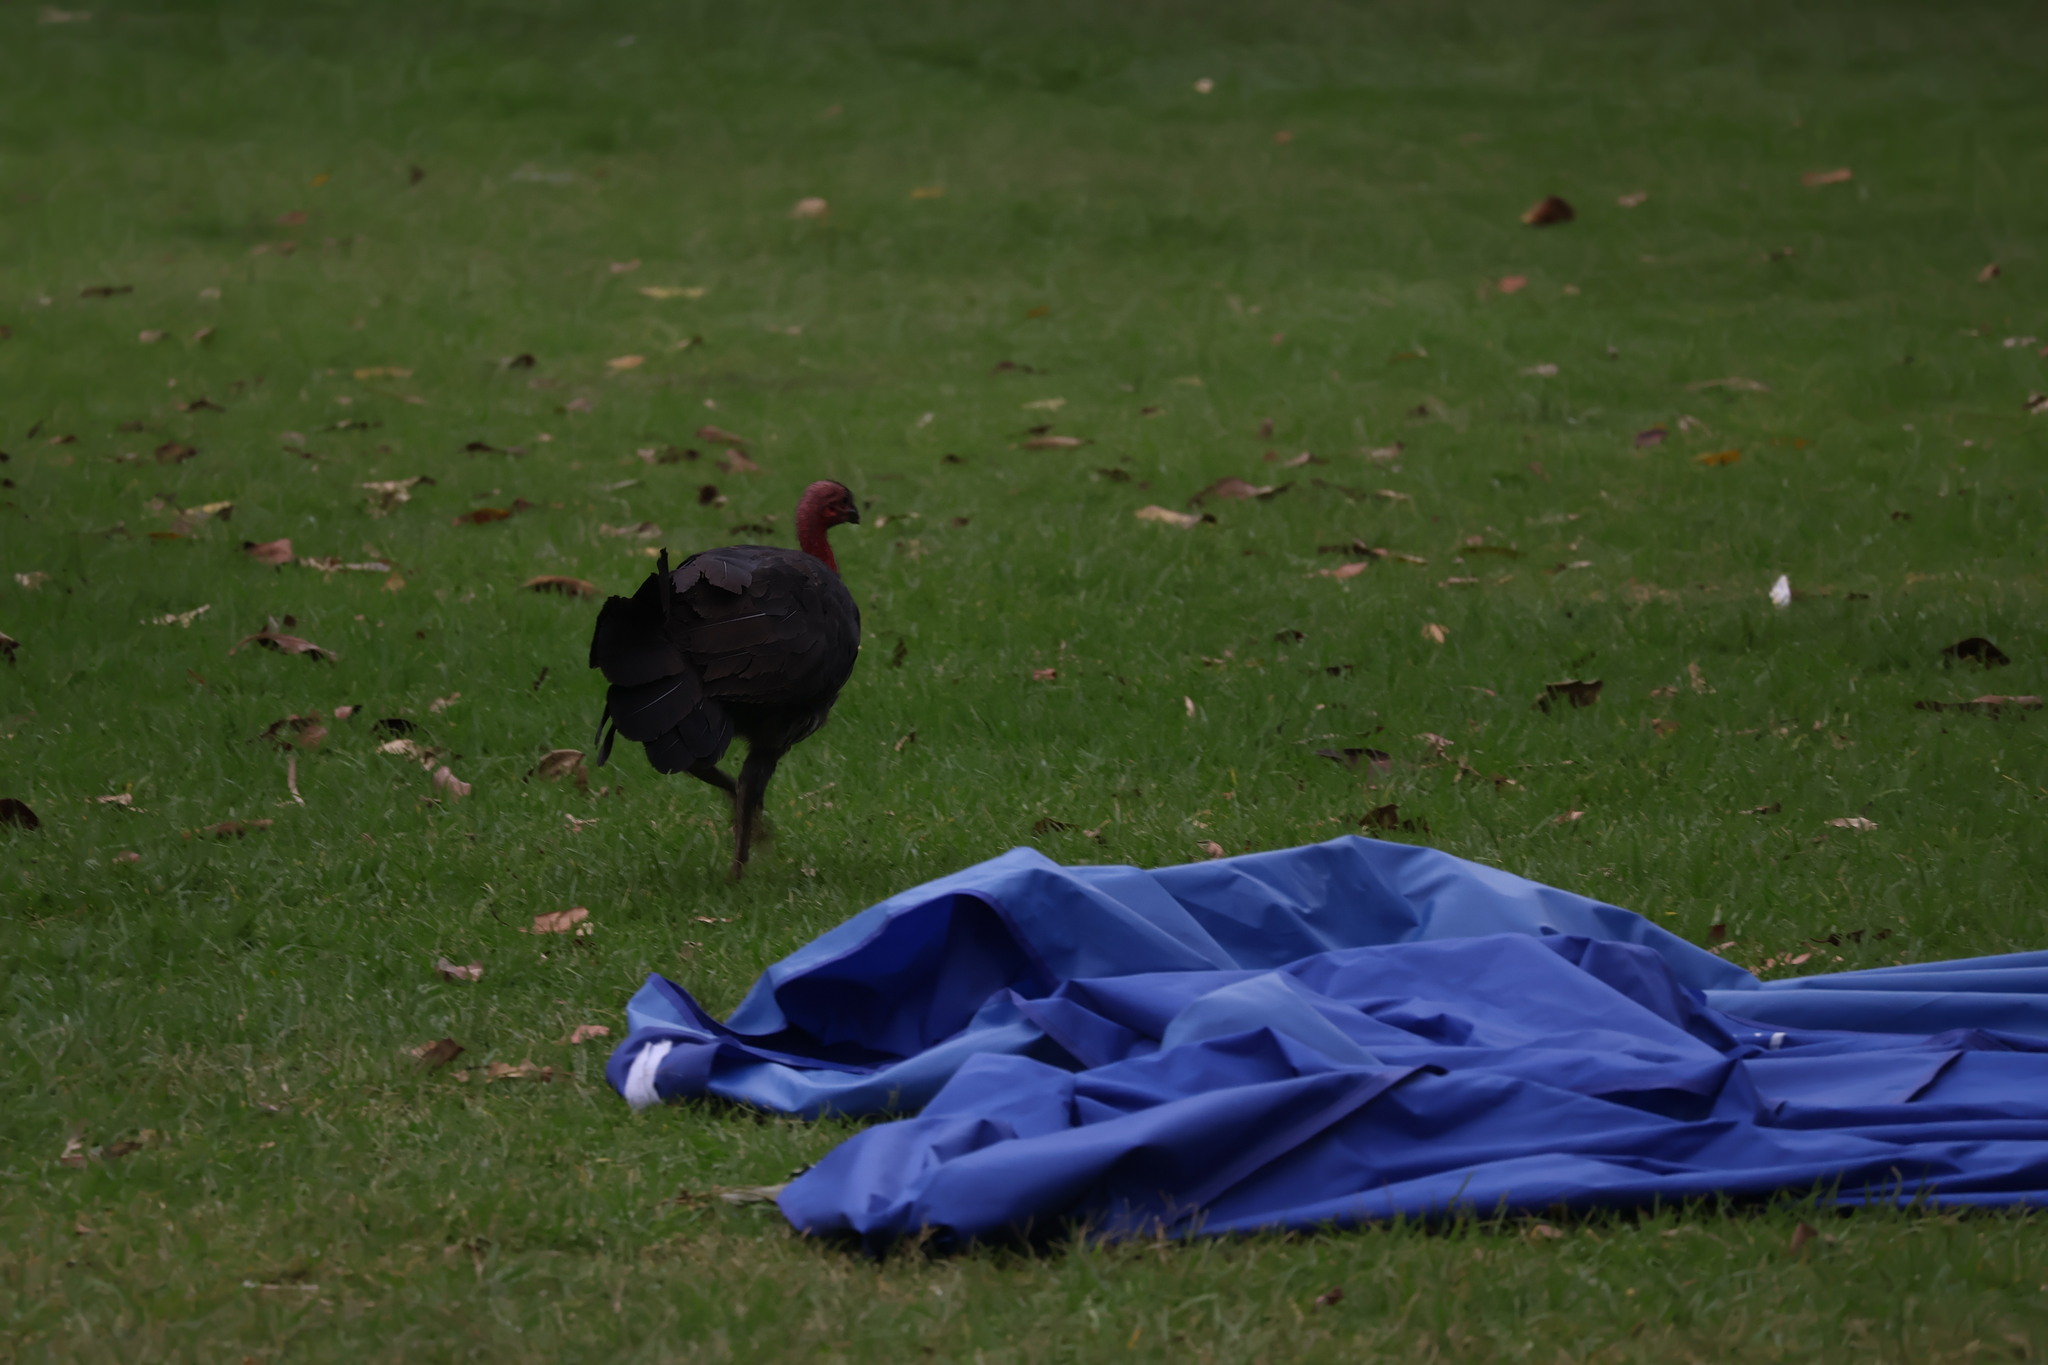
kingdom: Animalia
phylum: Chordata
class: Aves
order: Galliformes
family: Megapodiidae
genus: Alectura
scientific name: Alectura lathami
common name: Australian brushturkey
